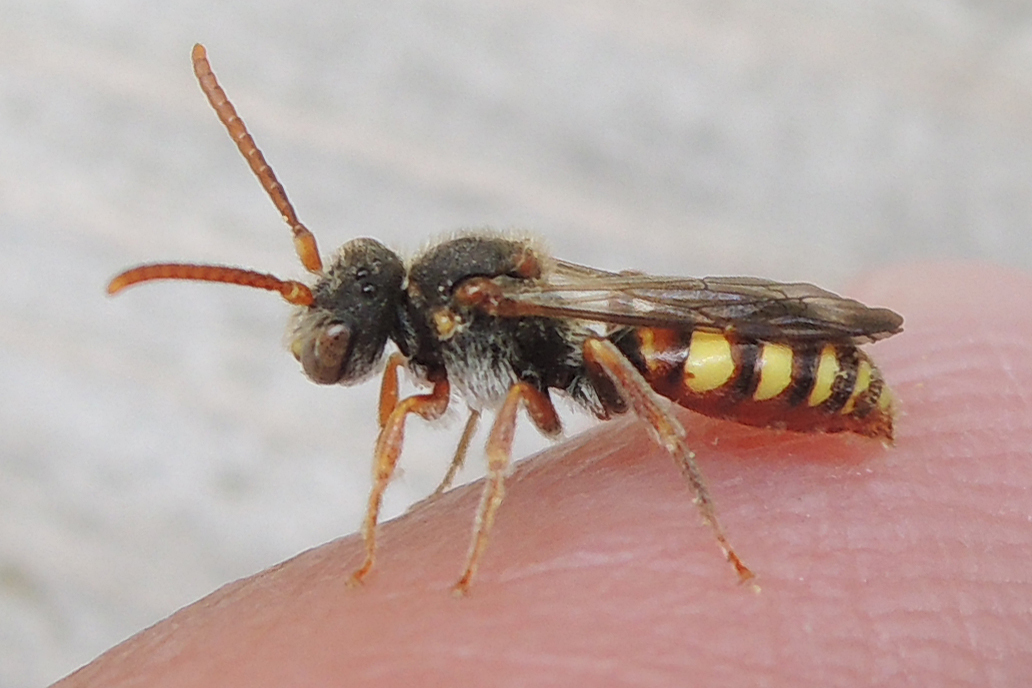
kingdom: Animalia
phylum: Arthropoda
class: Insecta
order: Hymenoptera
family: Apidae
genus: Nomada
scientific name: Nomada
